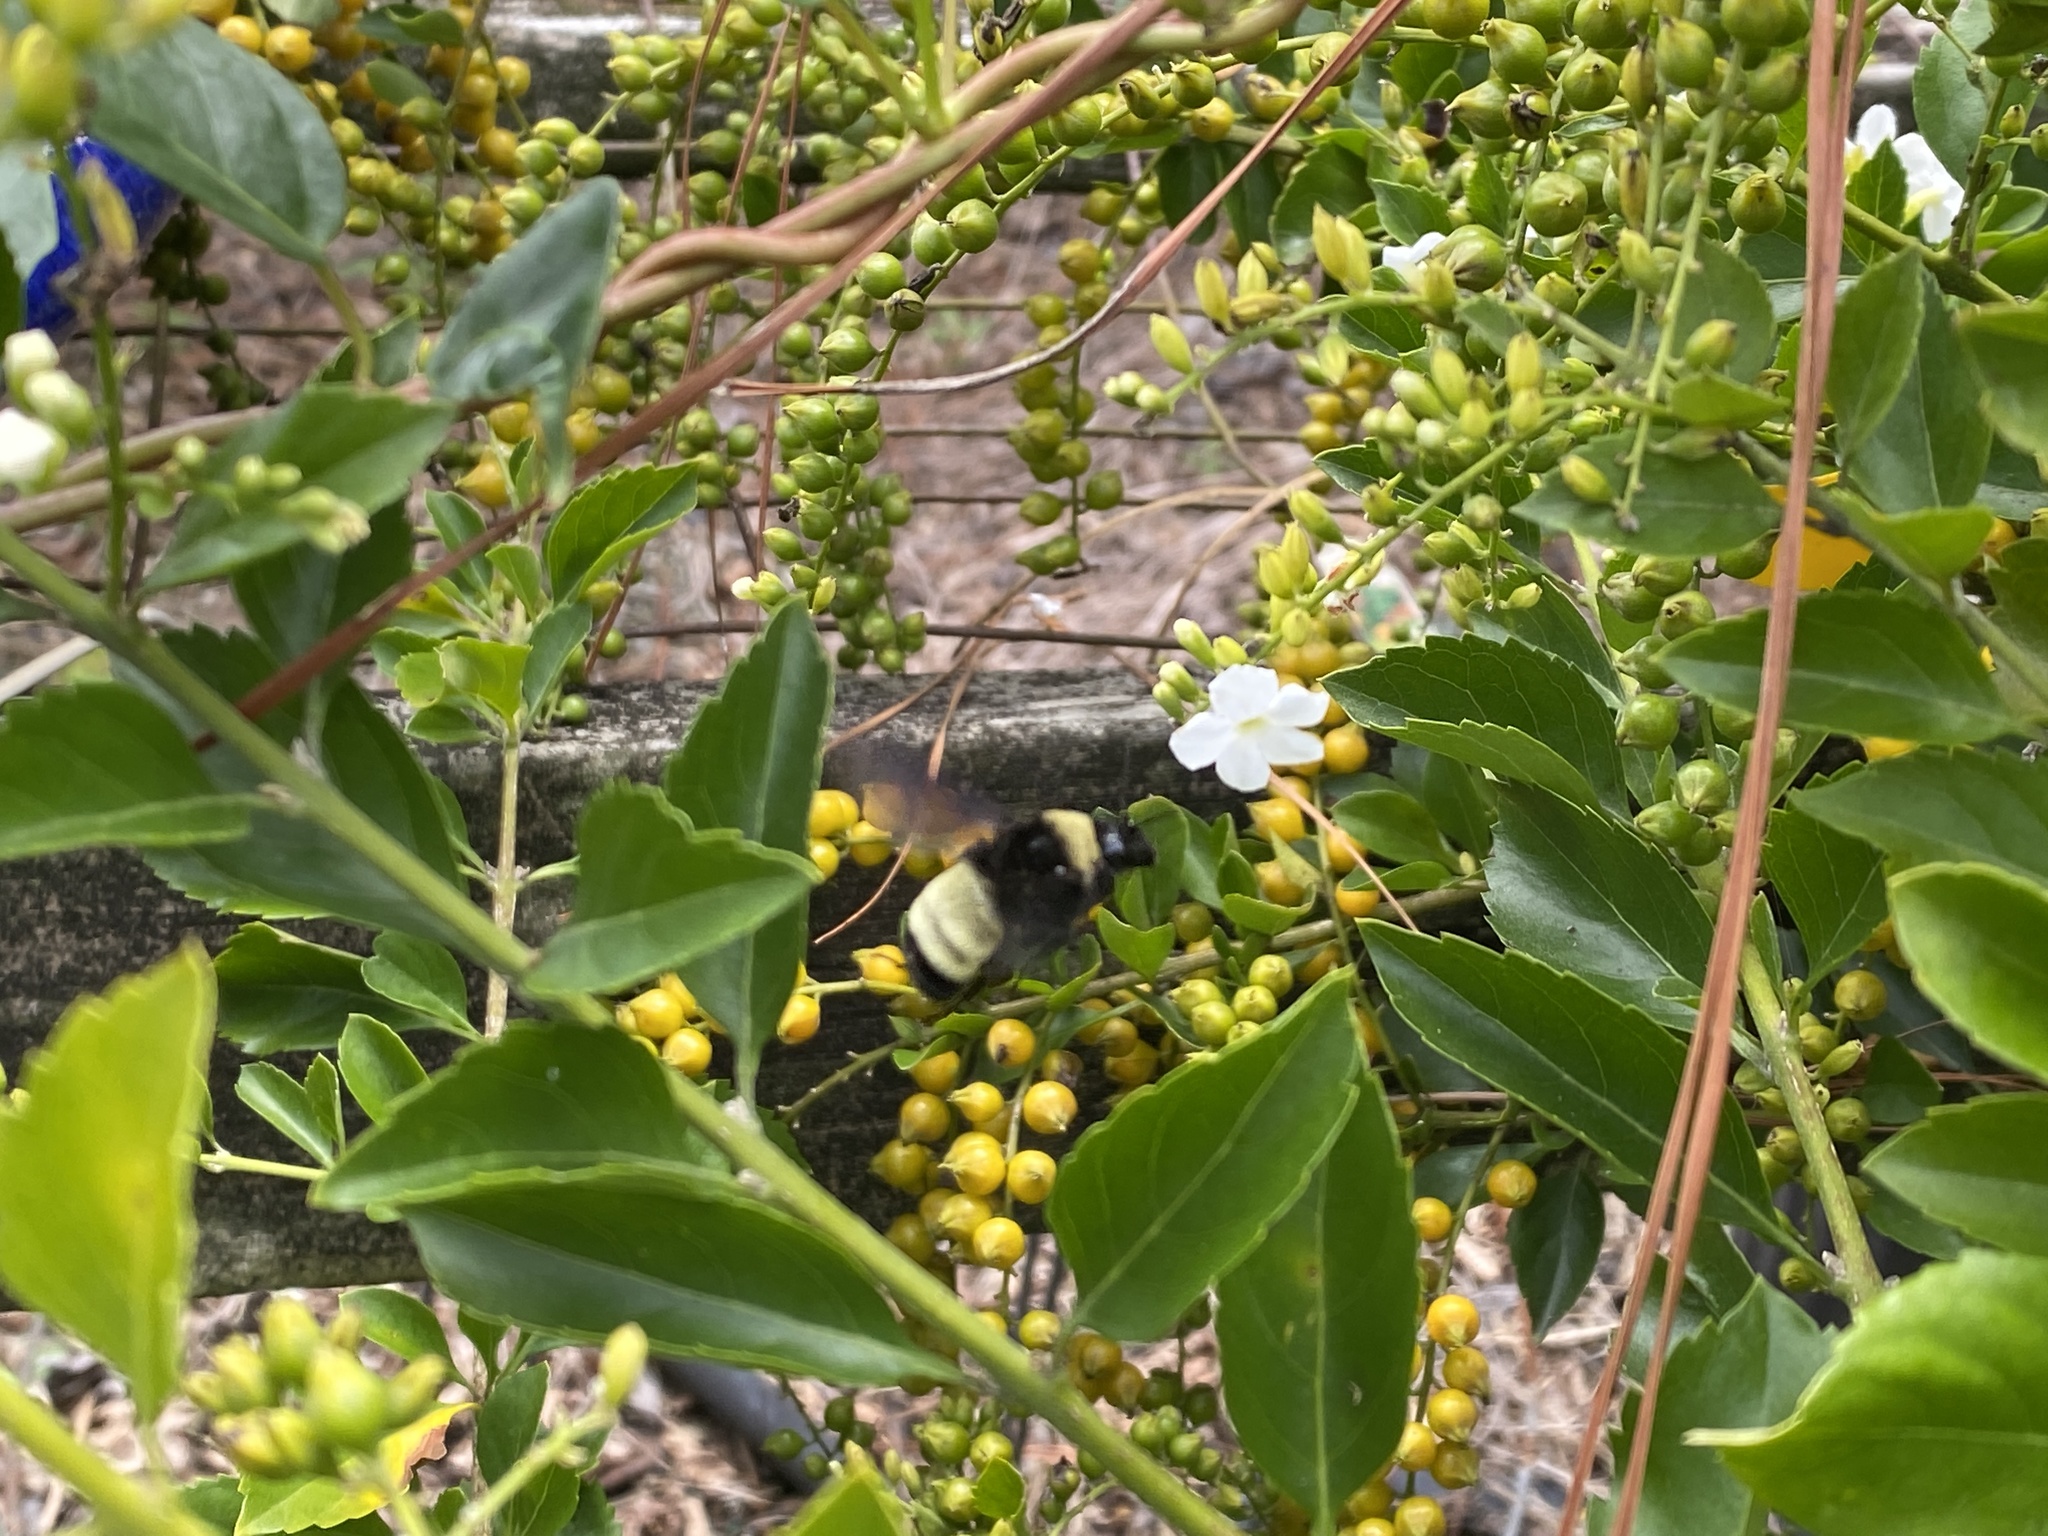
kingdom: Animalia
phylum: Arthropoda
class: Insecta
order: Hymenoptera
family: Apidae
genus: Bombus
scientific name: Bombus pensylvanicus
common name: Bumble bee
